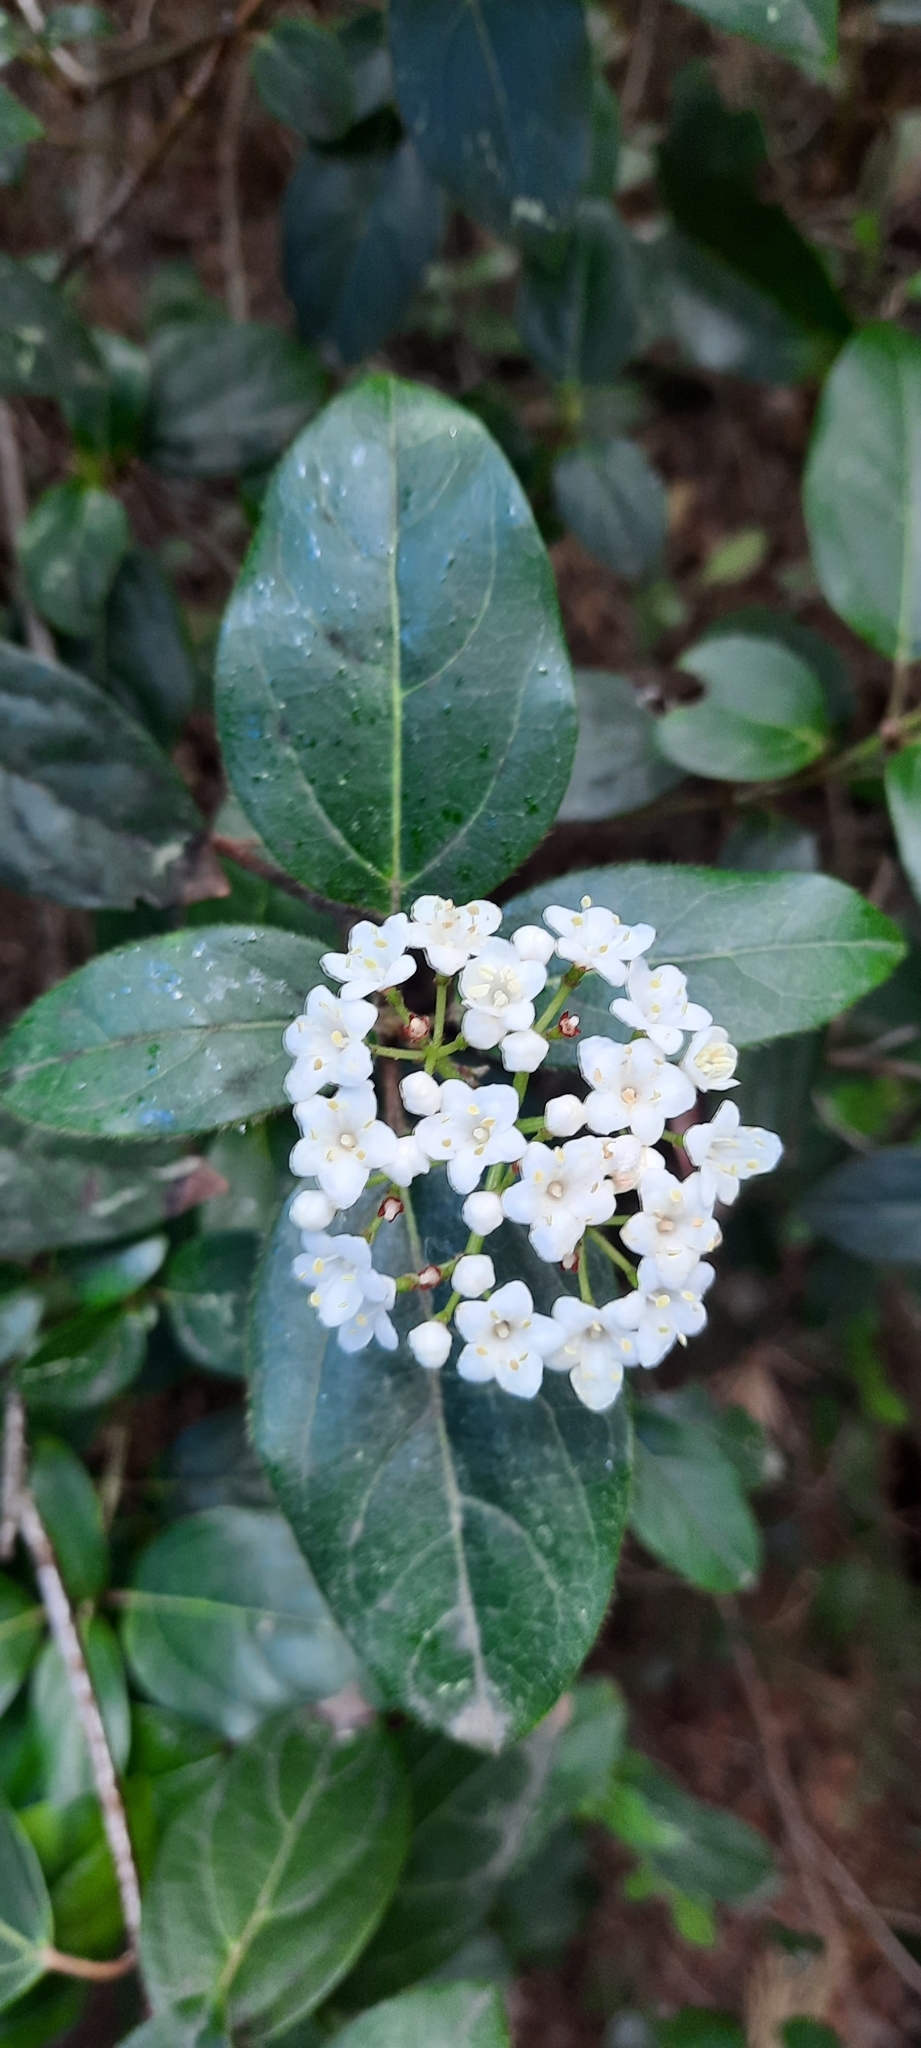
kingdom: Plantae
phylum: Tracheophyta
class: Magnoliopsida
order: Dipsacales
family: Viburnaceae
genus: Viburnum
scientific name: Viburnum tinus
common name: Laurustinus
